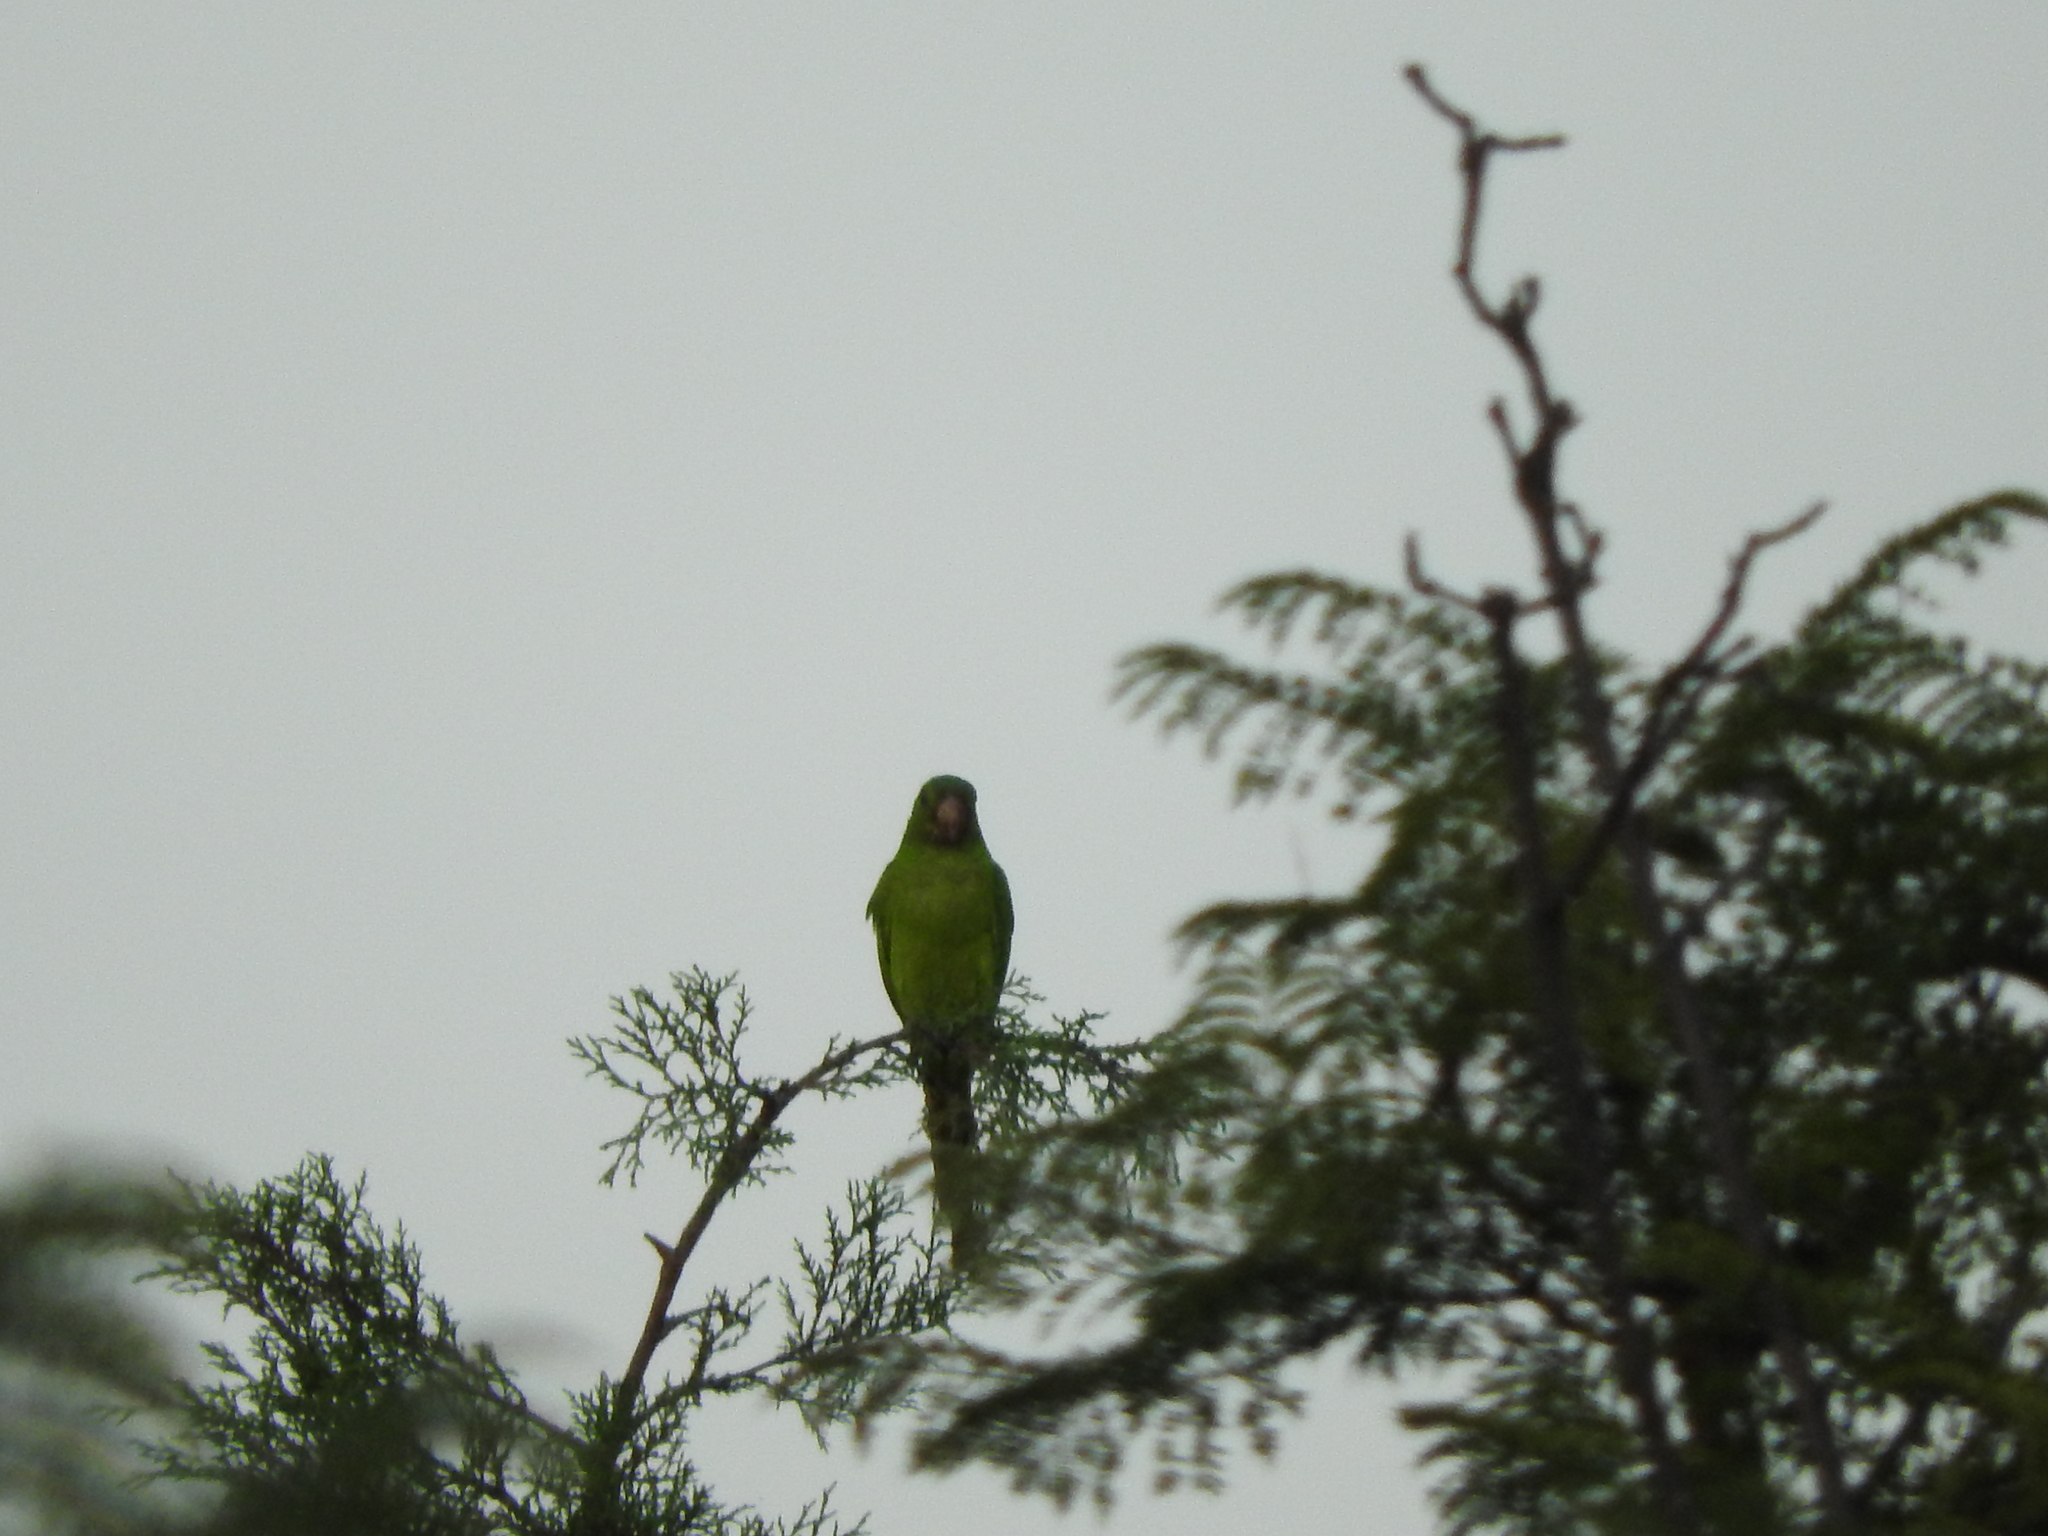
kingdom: Animalia
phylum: Chordata
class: Aves
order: Psittaciformes
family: Psittacidae
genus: Myiopsitta
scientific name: Myiopsitta monachus
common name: Monk parakeet
